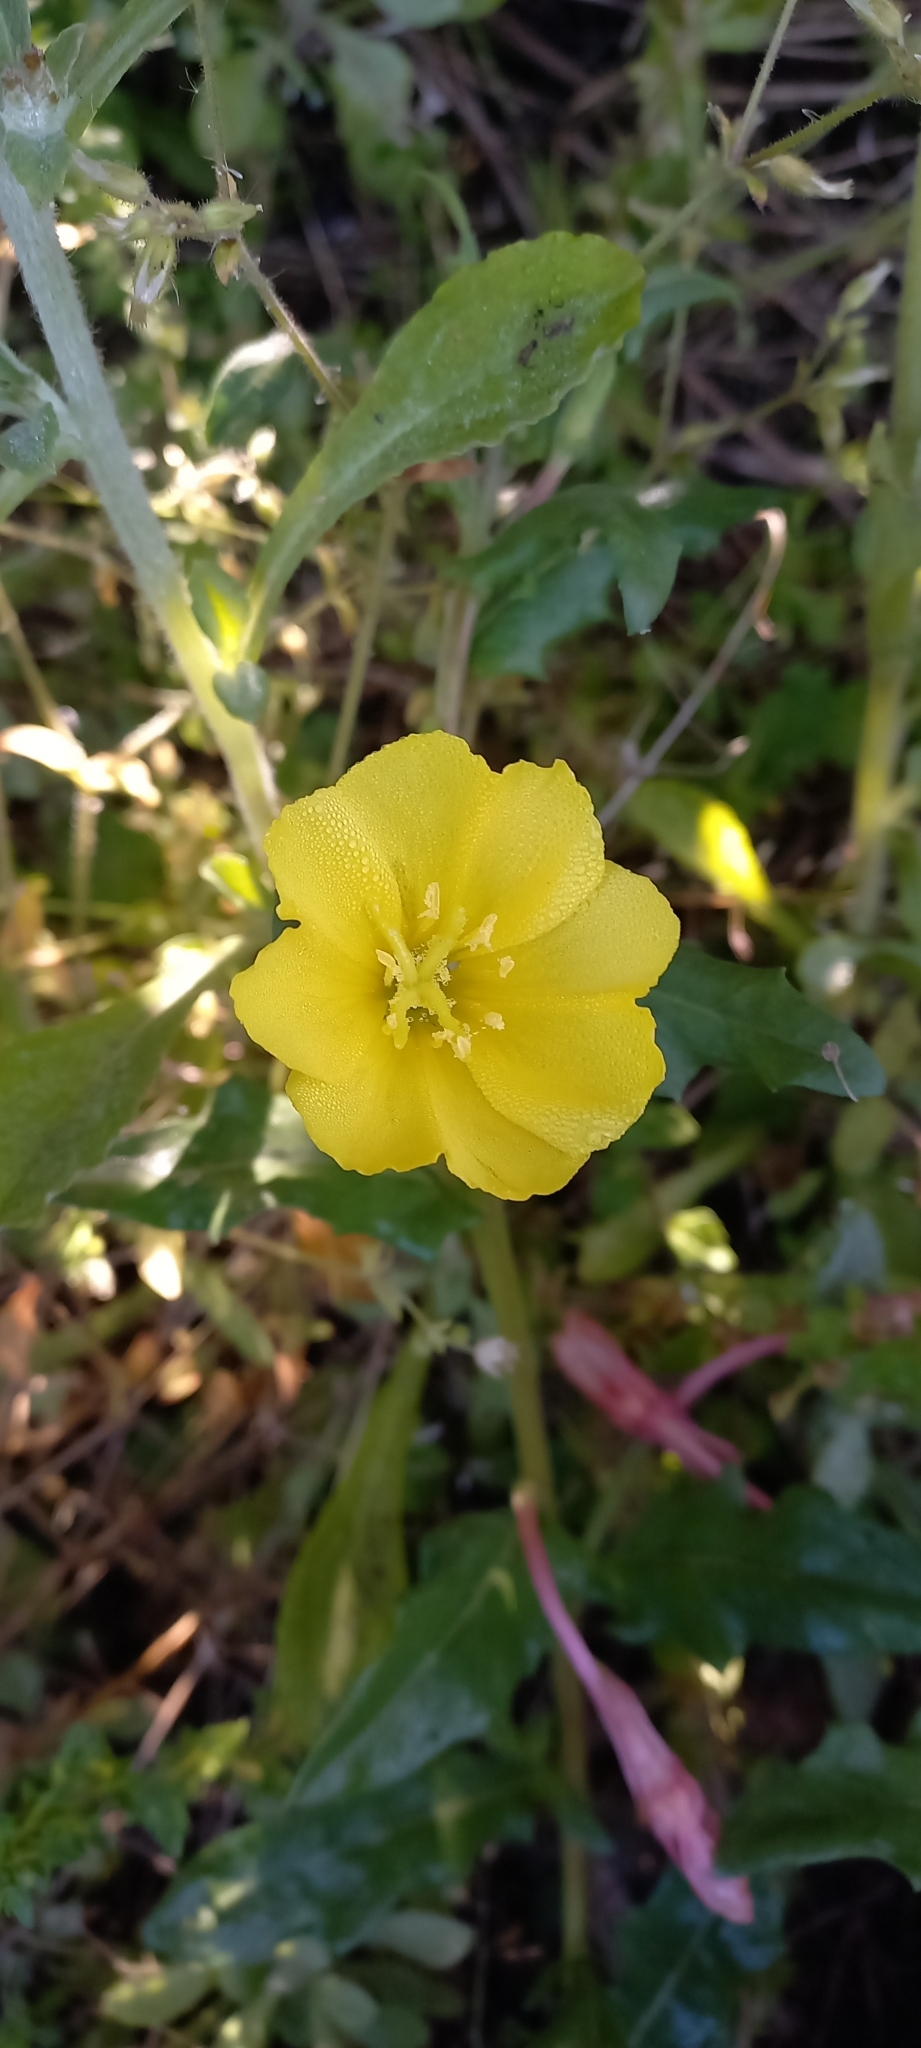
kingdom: Plantae
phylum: Tracheophyta
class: Magnoliopsida
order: Myrtales
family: Onagraceae
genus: Oenothera
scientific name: Oenothera flava
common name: Long-tubed evening-primrose
